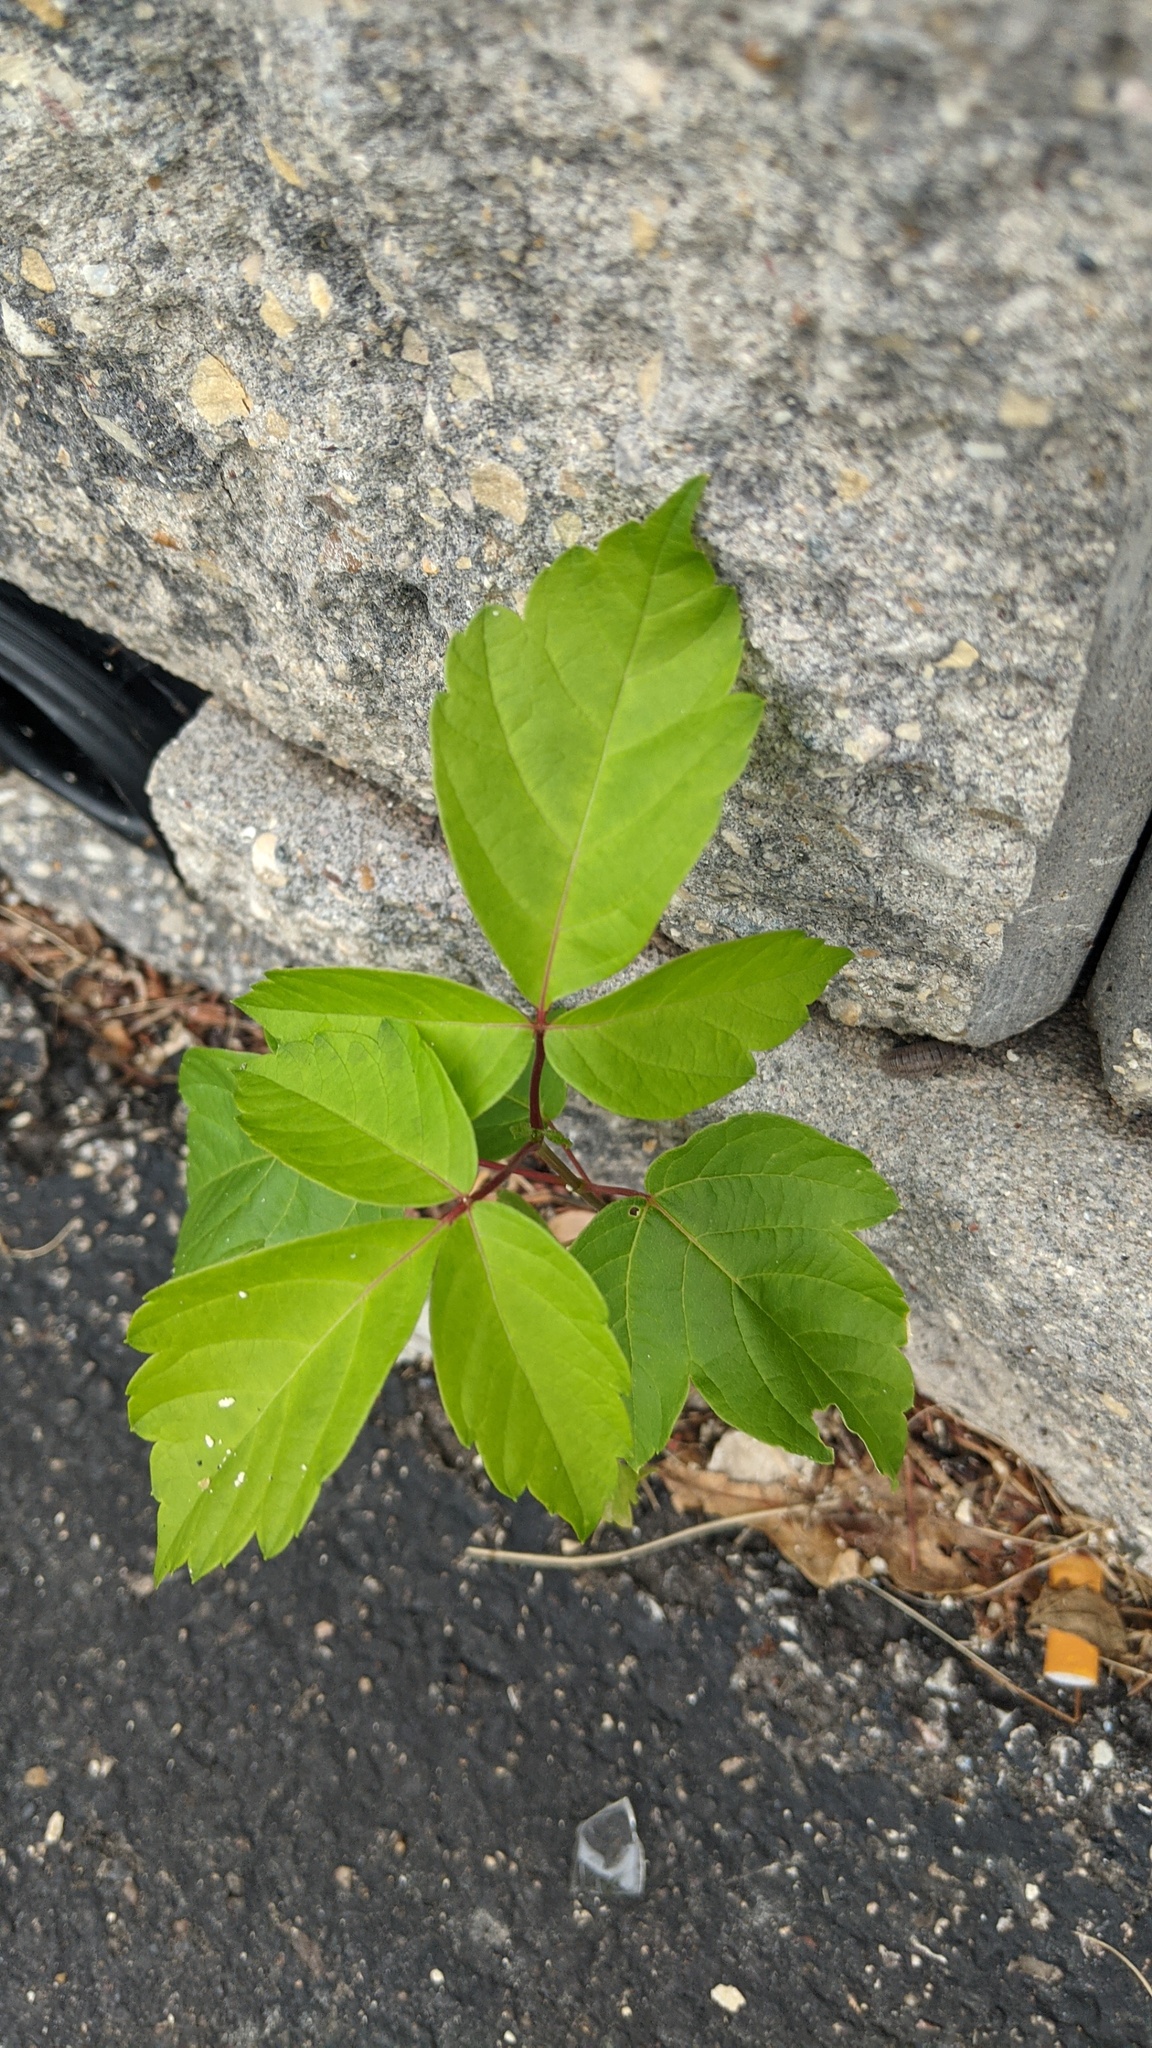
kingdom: Plantae
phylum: Tracheophyta
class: Magnoliopsida
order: Sapindales
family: Sapindaceae
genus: Acer
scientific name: Acer negundo
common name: Ashleaf maple
